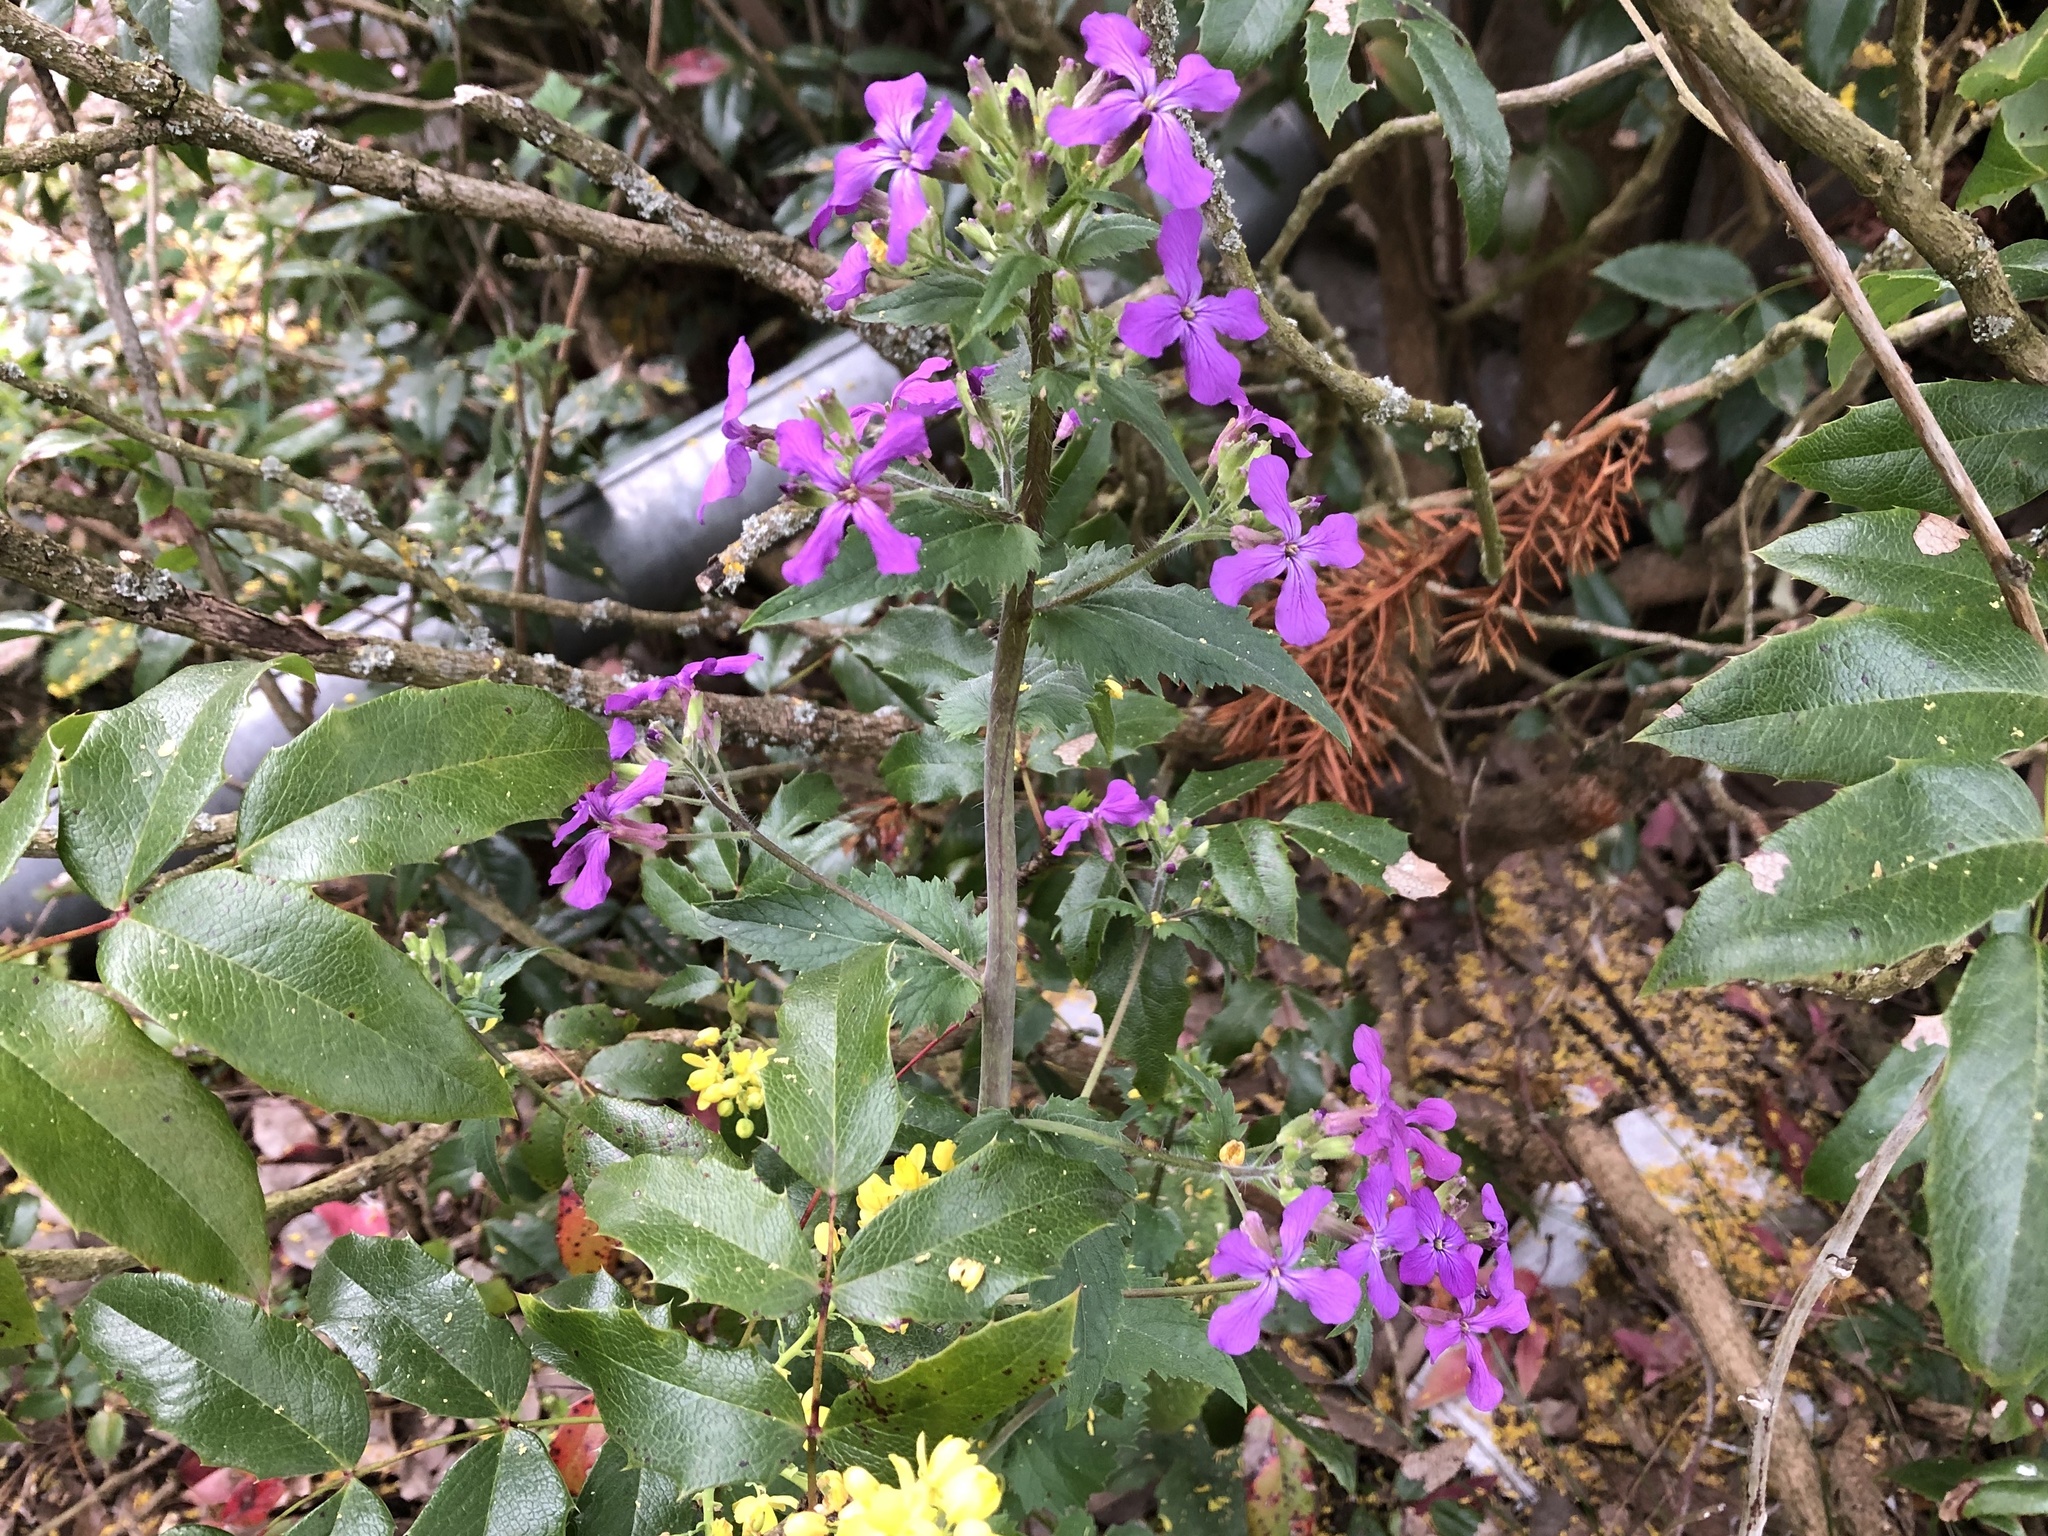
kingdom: Plantae
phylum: Tracheophyta
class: Magnoliopsida
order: Brassicales
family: Brassicaceae
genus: Lunaria
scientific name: Lunaria annua
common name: Honesty
